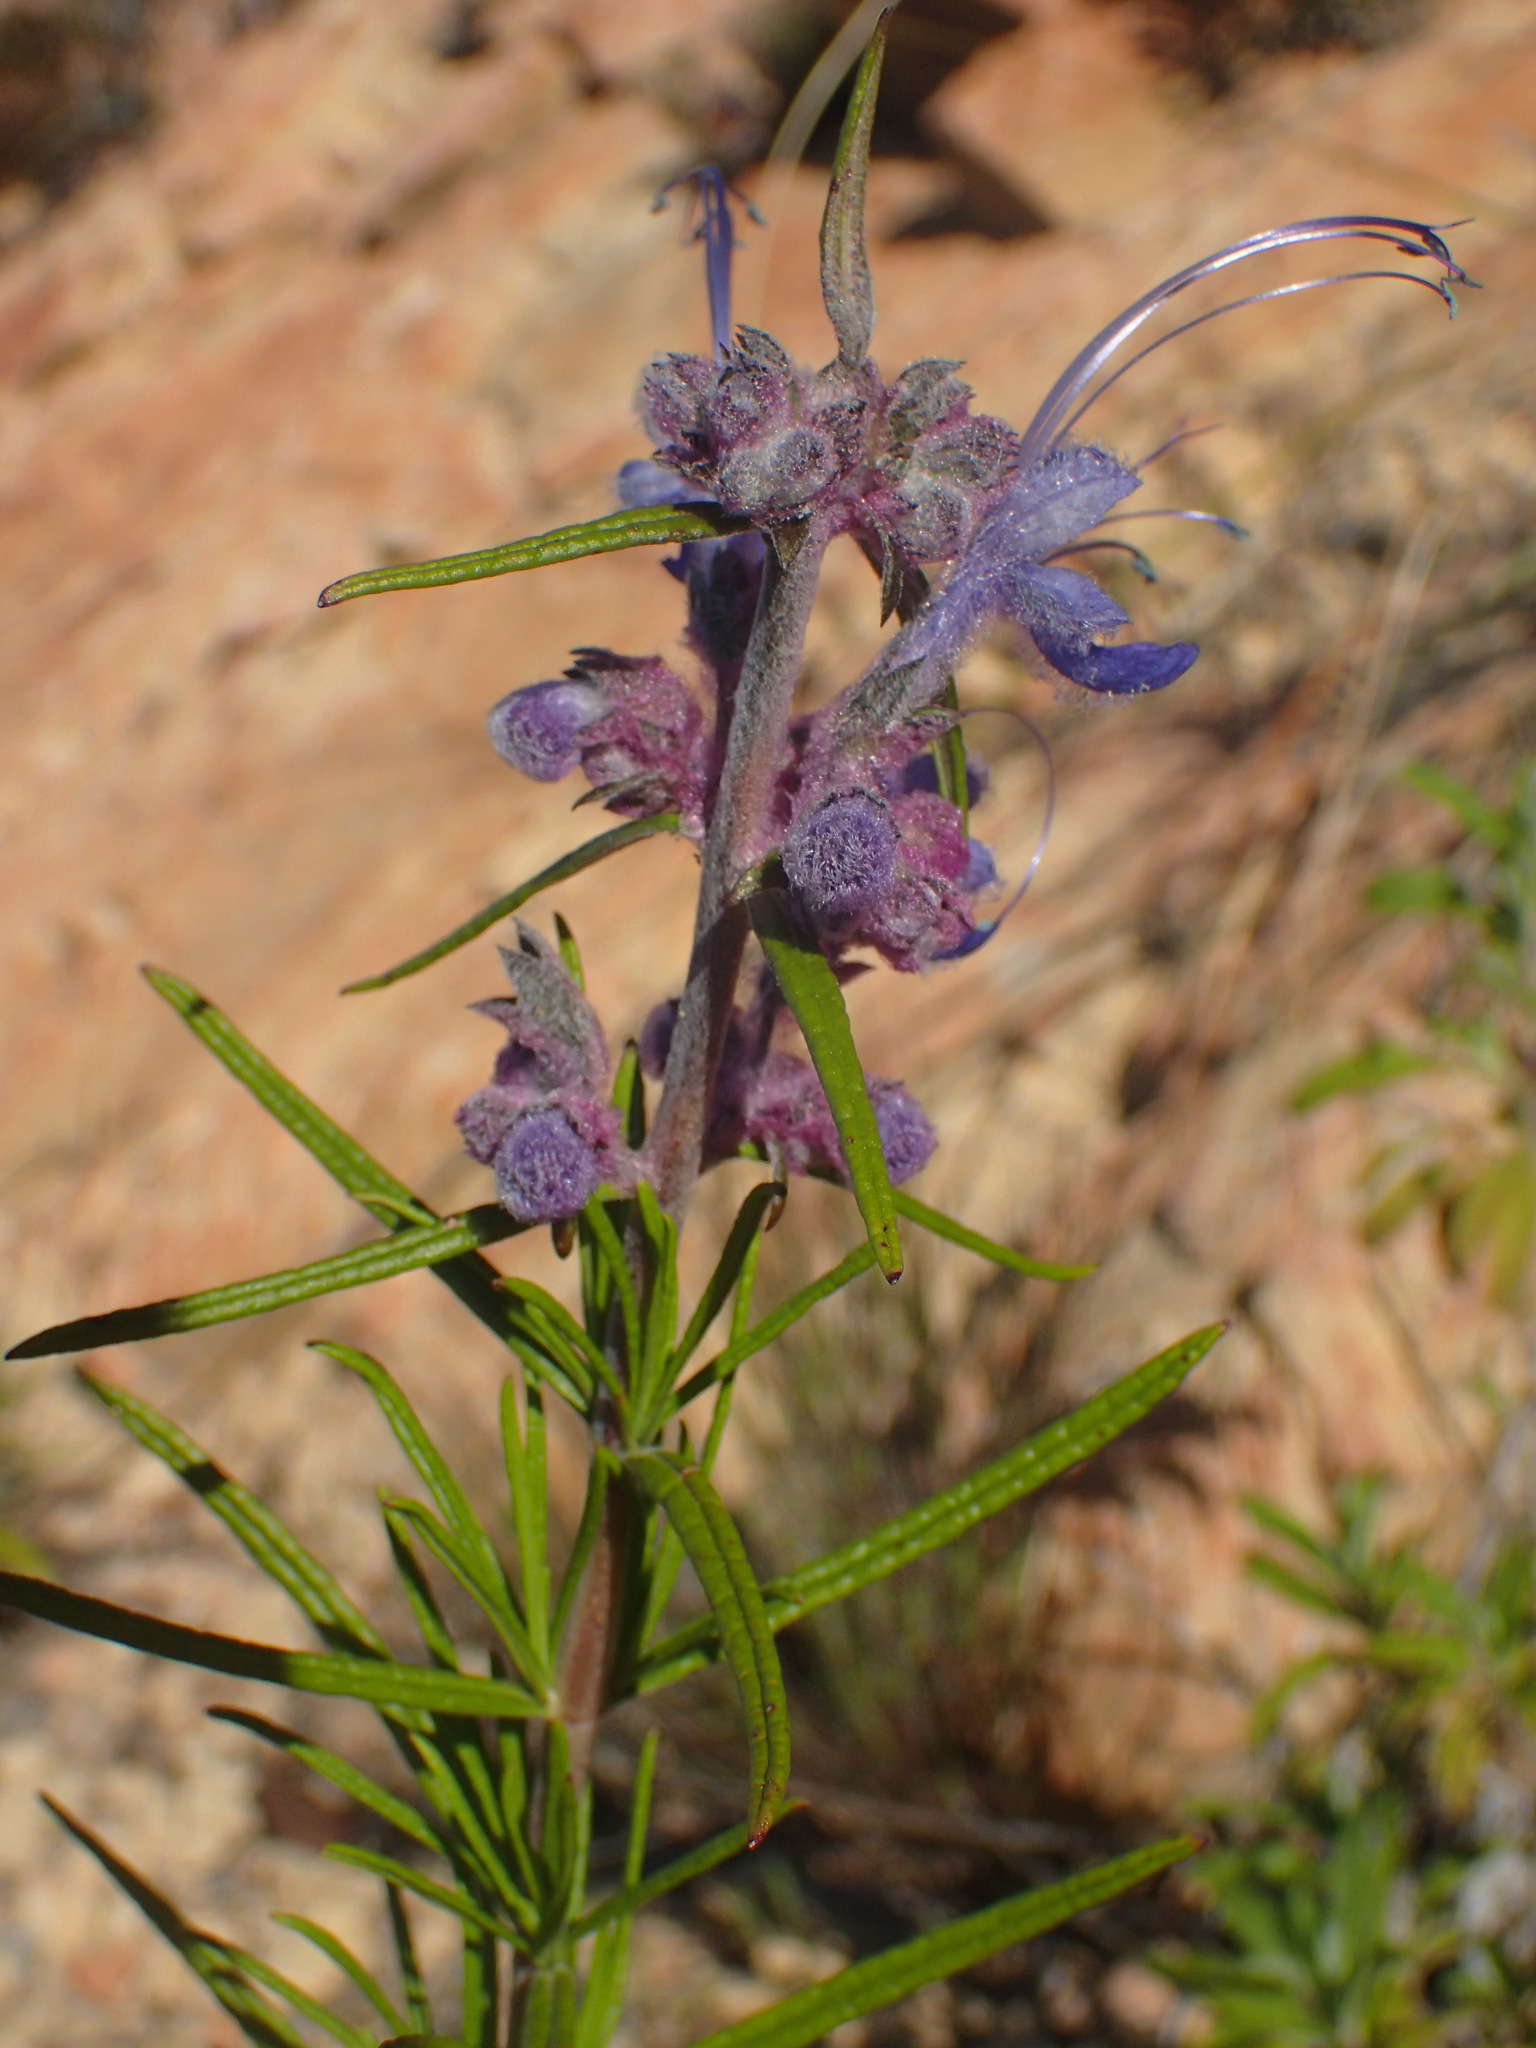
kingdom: Plantae
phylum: Tracheophyta
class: Magnoliopsida
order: Lamiales
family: Lamiaceae
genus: Trichostema
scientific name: Trichostema lanatum
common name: Woolly bluecurls
